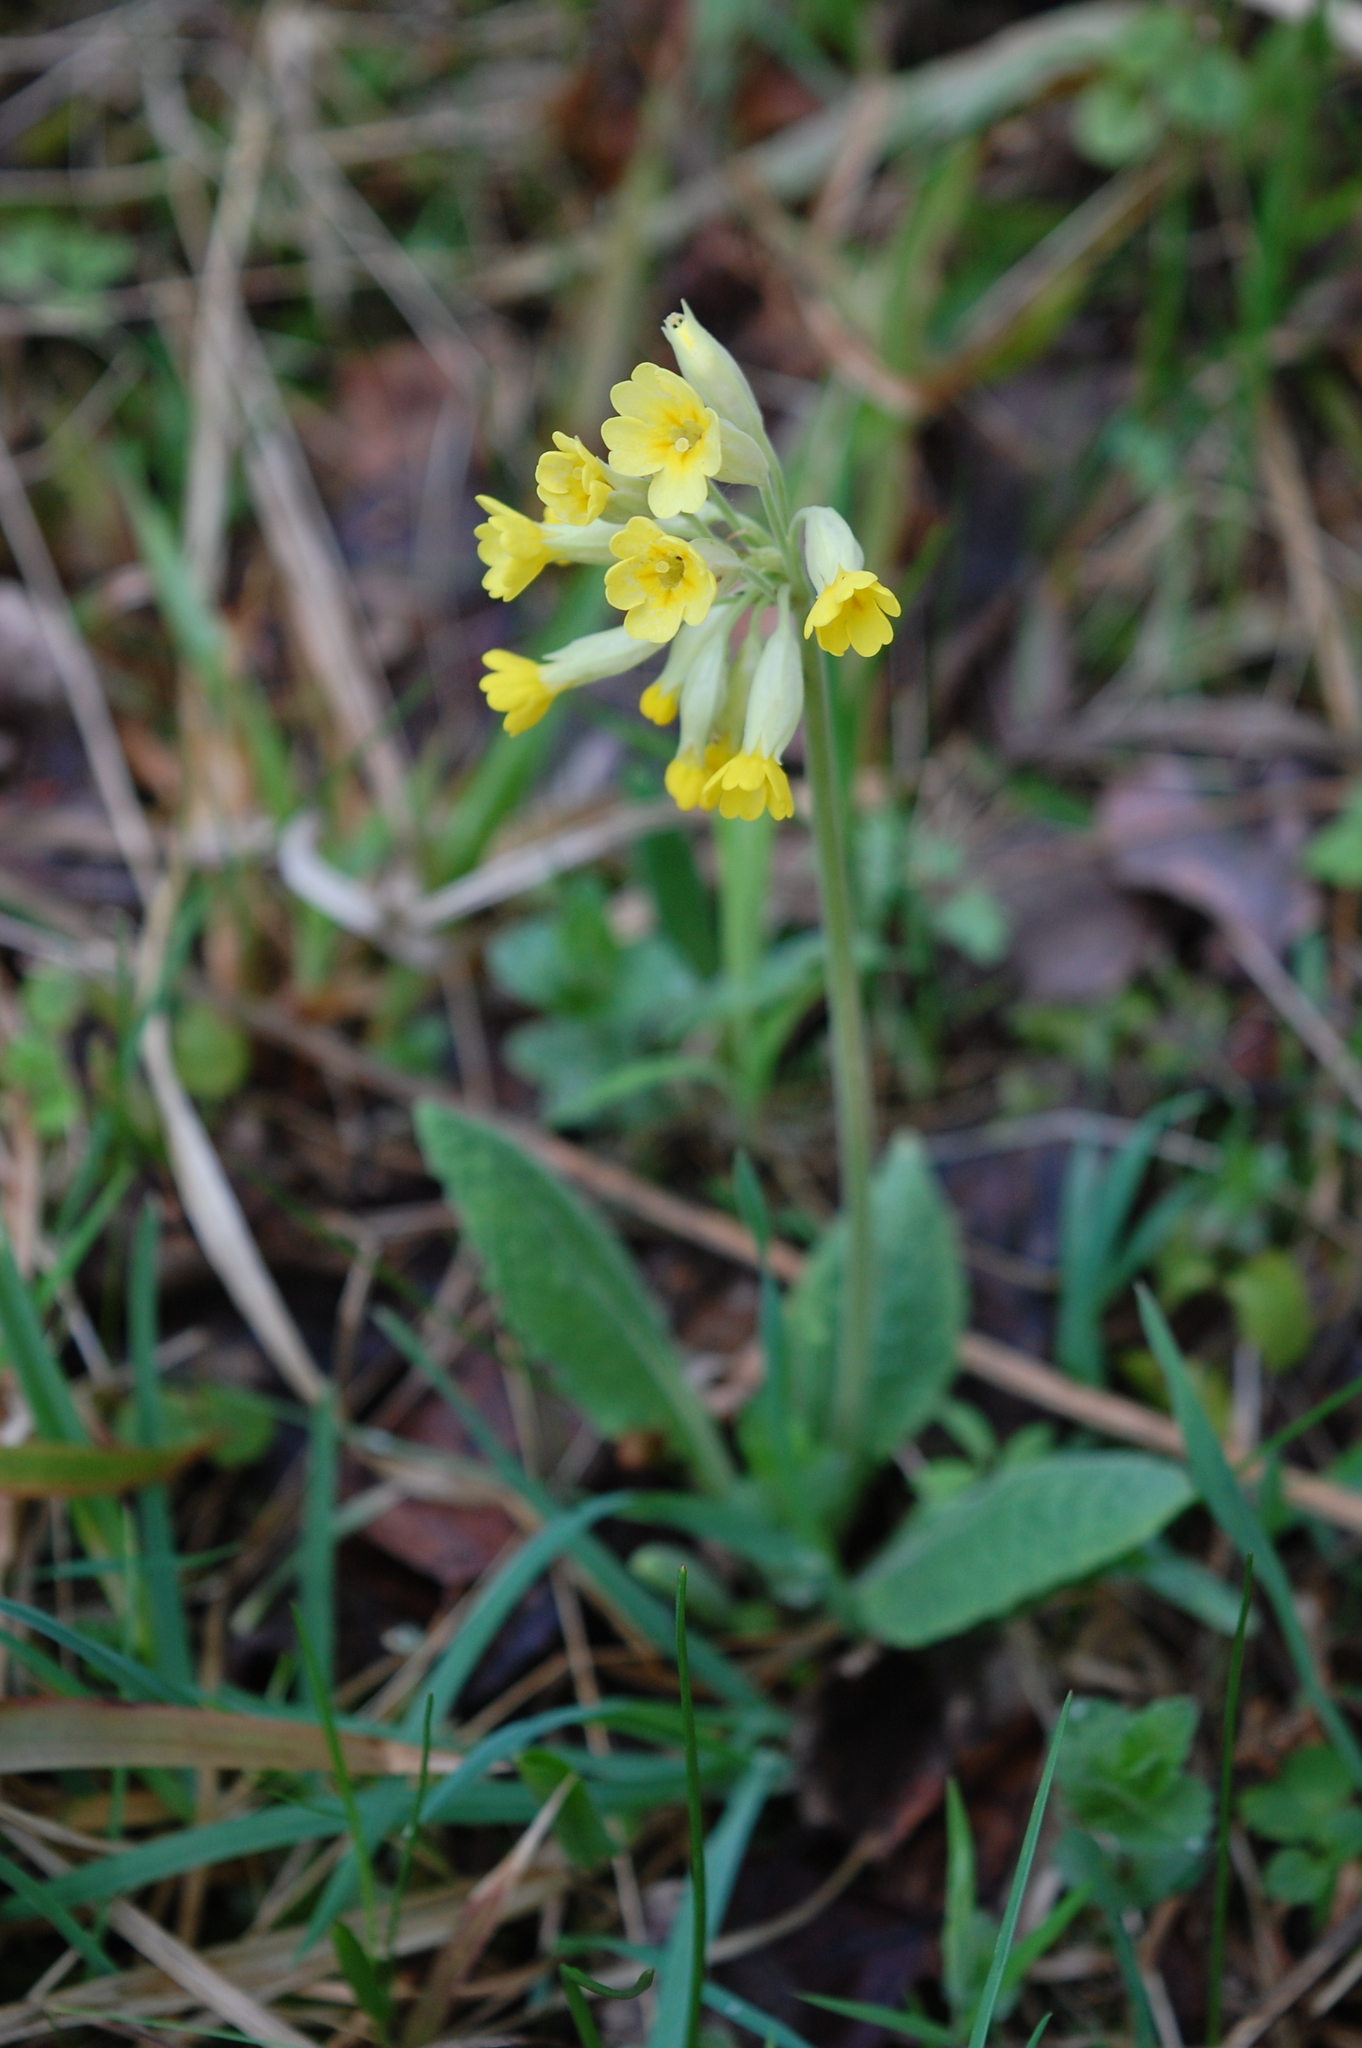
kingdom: Plantae
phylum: Tracheophyta
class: Magnoliopsida
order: Ericales
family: Primulaceae
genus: Primula
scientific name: Primula veris
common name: Cowslip
